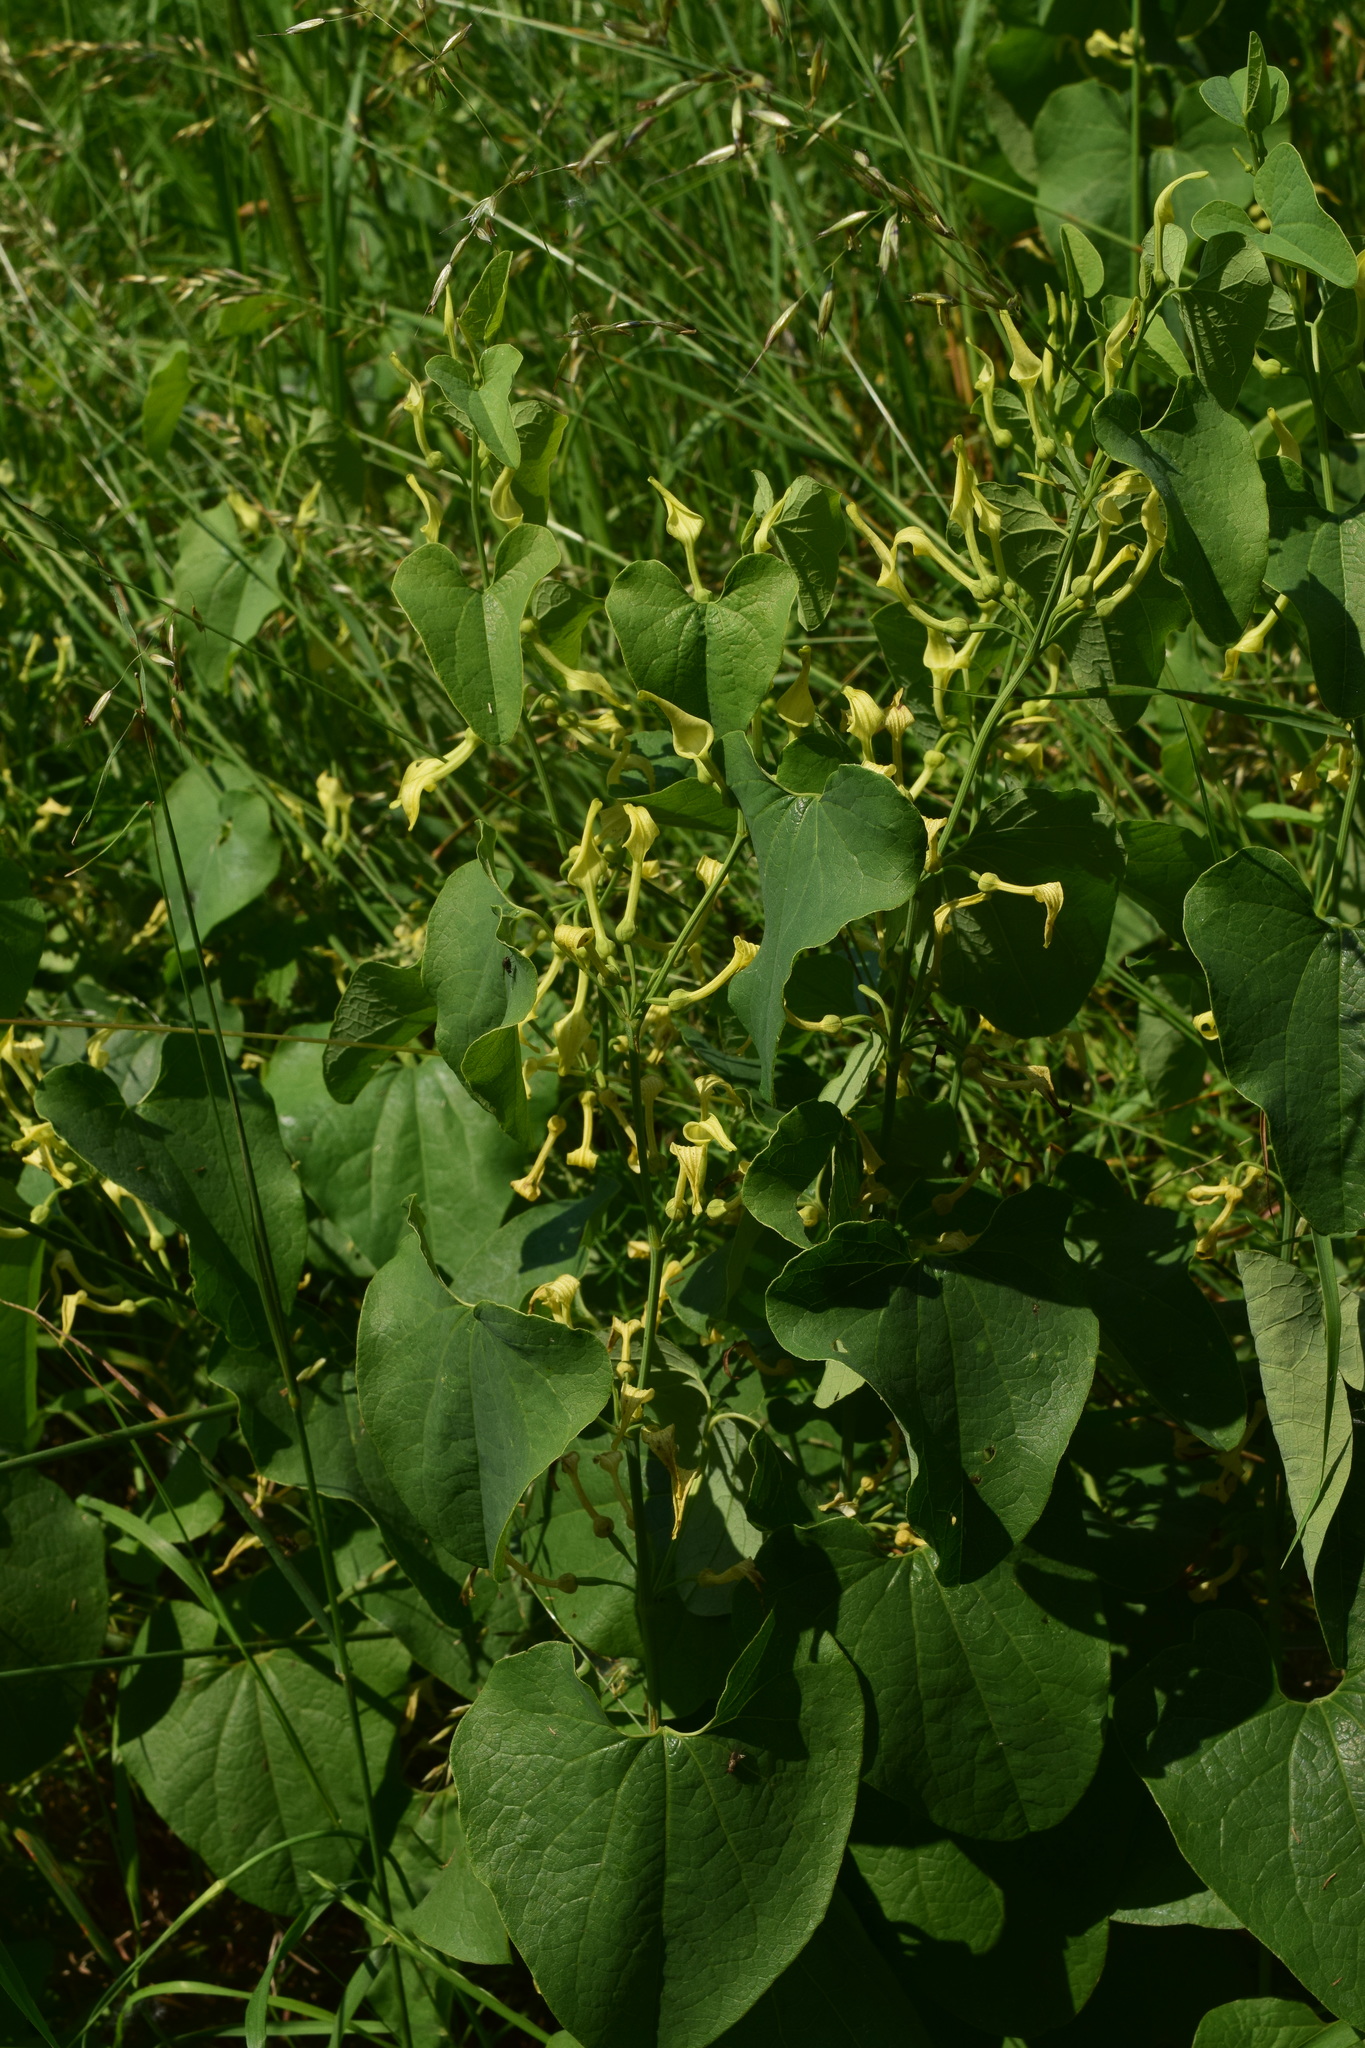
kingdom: Plantae
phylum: Tracheophyta
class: Magnoliopsida
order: Piperales
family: Aristolochiaceae
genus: Aristolochia
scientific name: Aristolochia clematitis
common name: Birthwort
